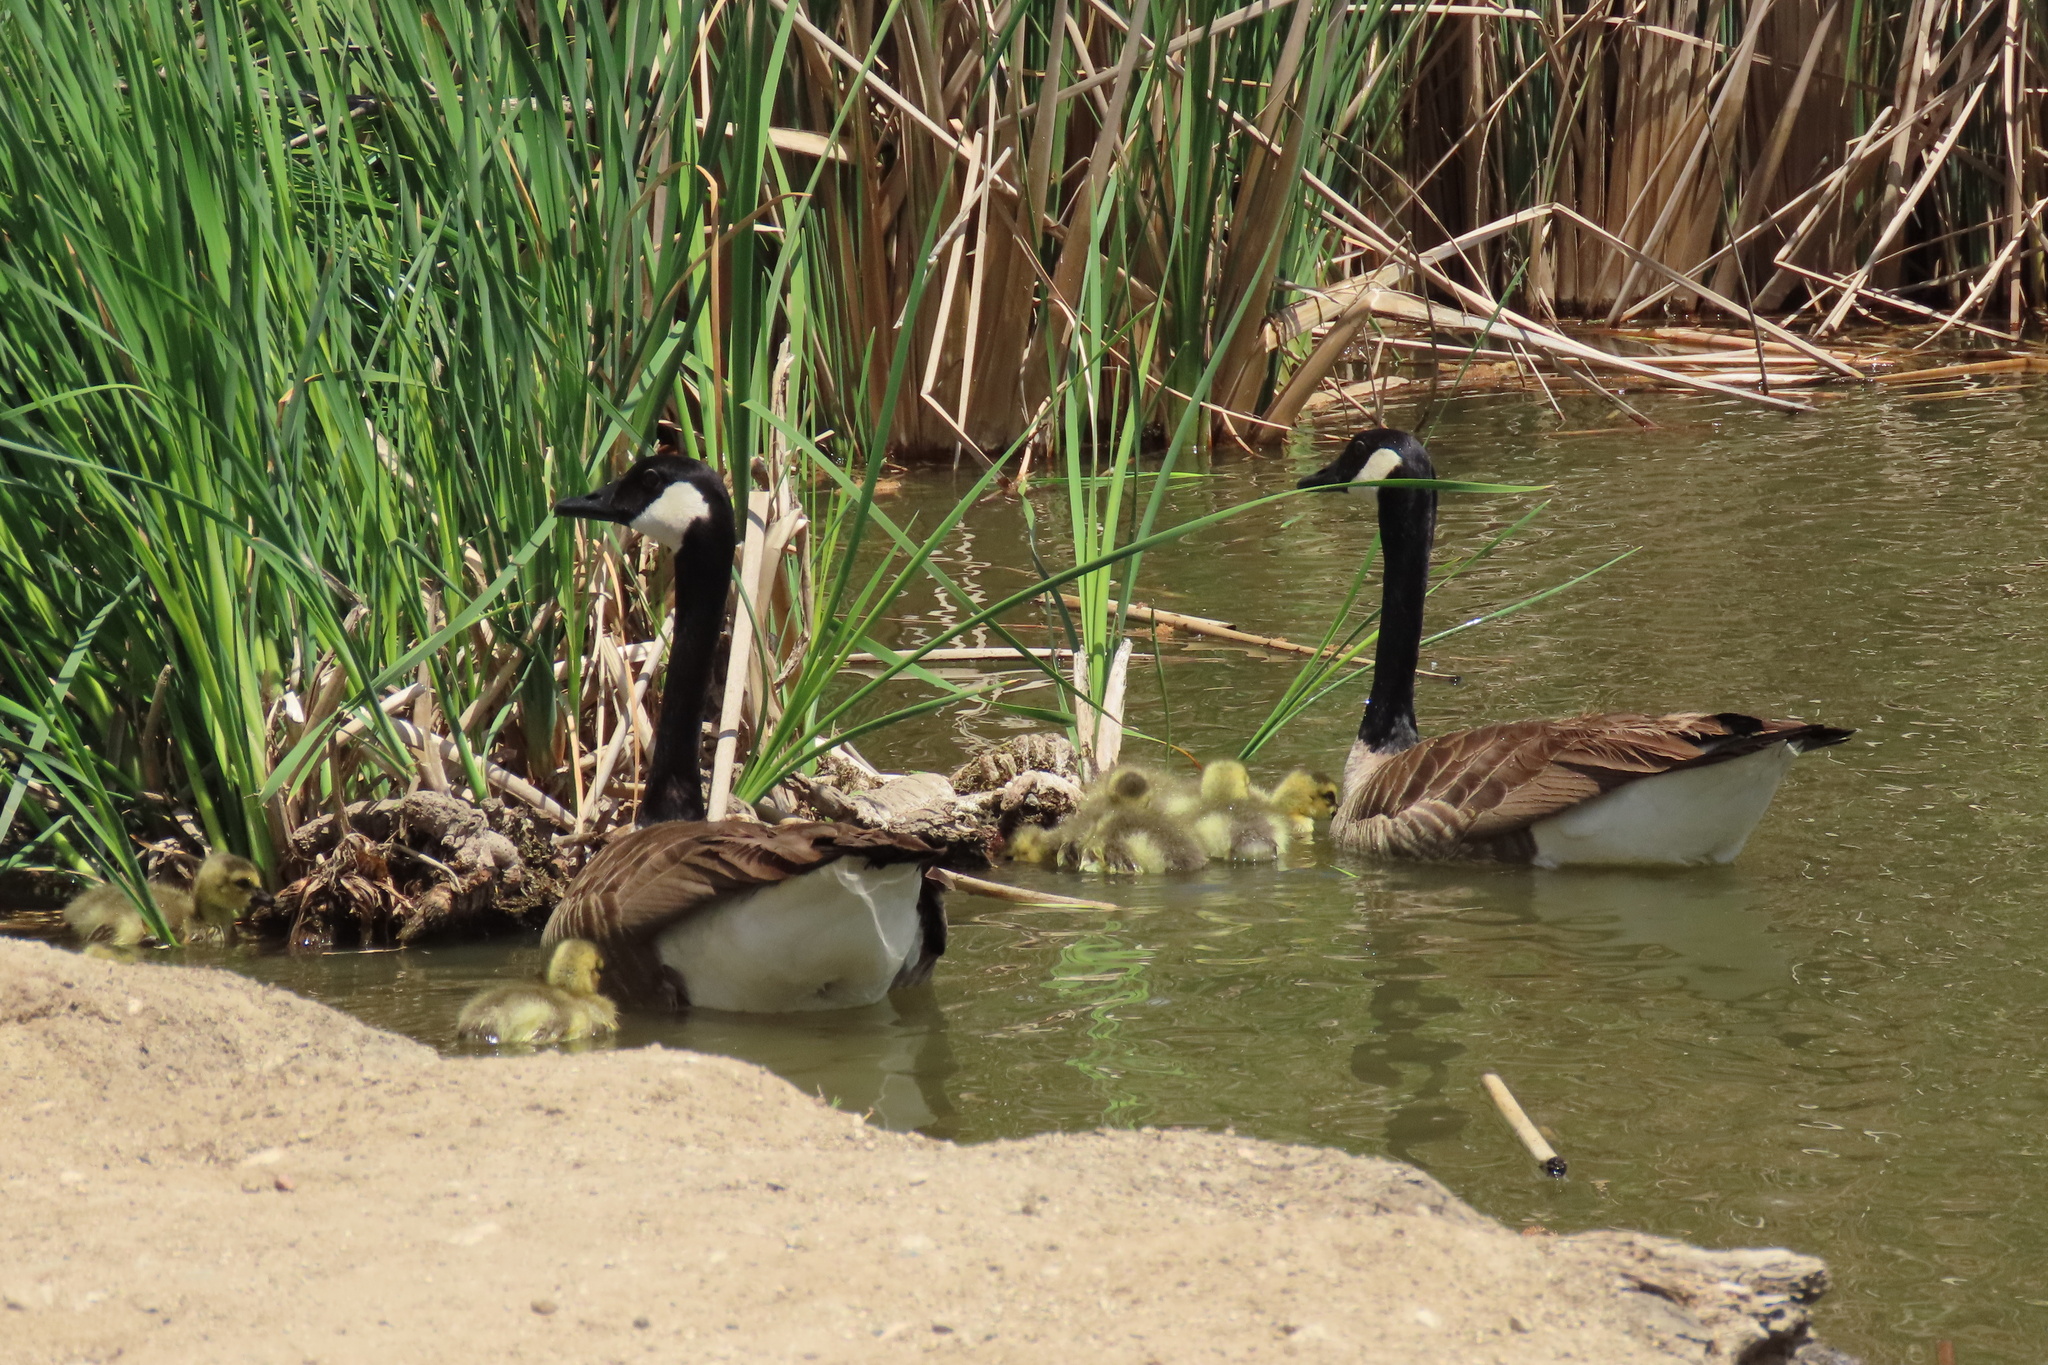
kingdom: Animalia
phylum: Chordata
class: Aves
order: Anseriformes
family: Anatidae
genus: Branta
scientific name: Branta canadensis
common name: Canada goose
